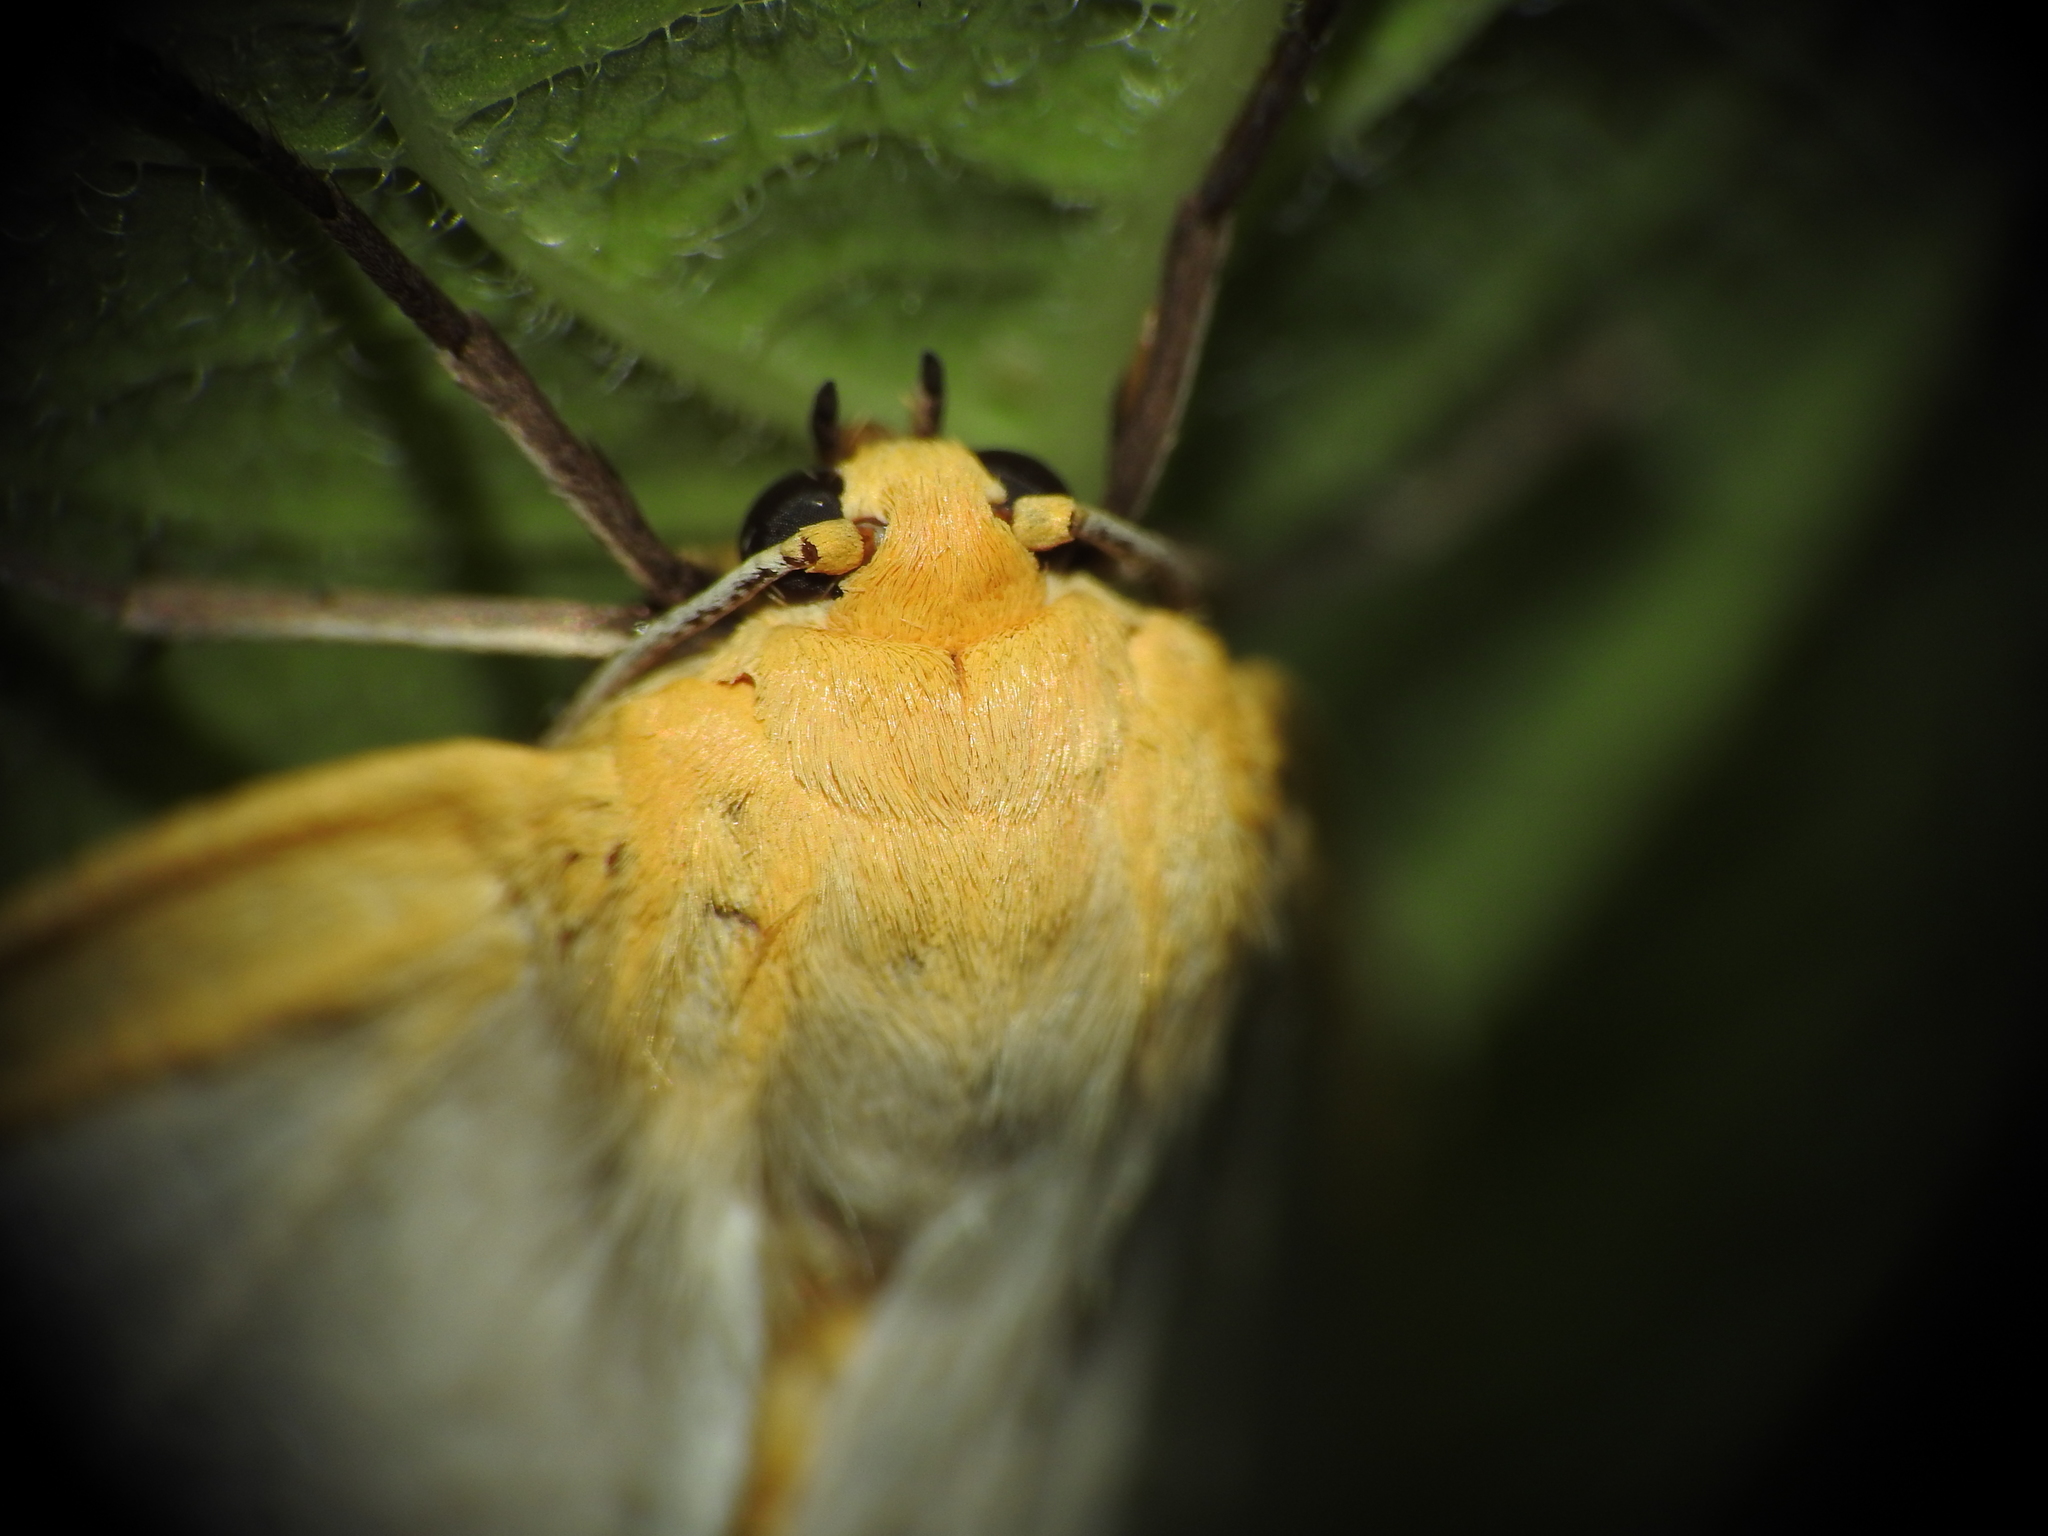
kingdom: Animalia
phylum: Arthropoda
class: Insecta
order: Lepidoptera
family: Erebidae
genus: Cycnia
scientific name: Cycnia tenera
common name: Delicate cycnia moth
